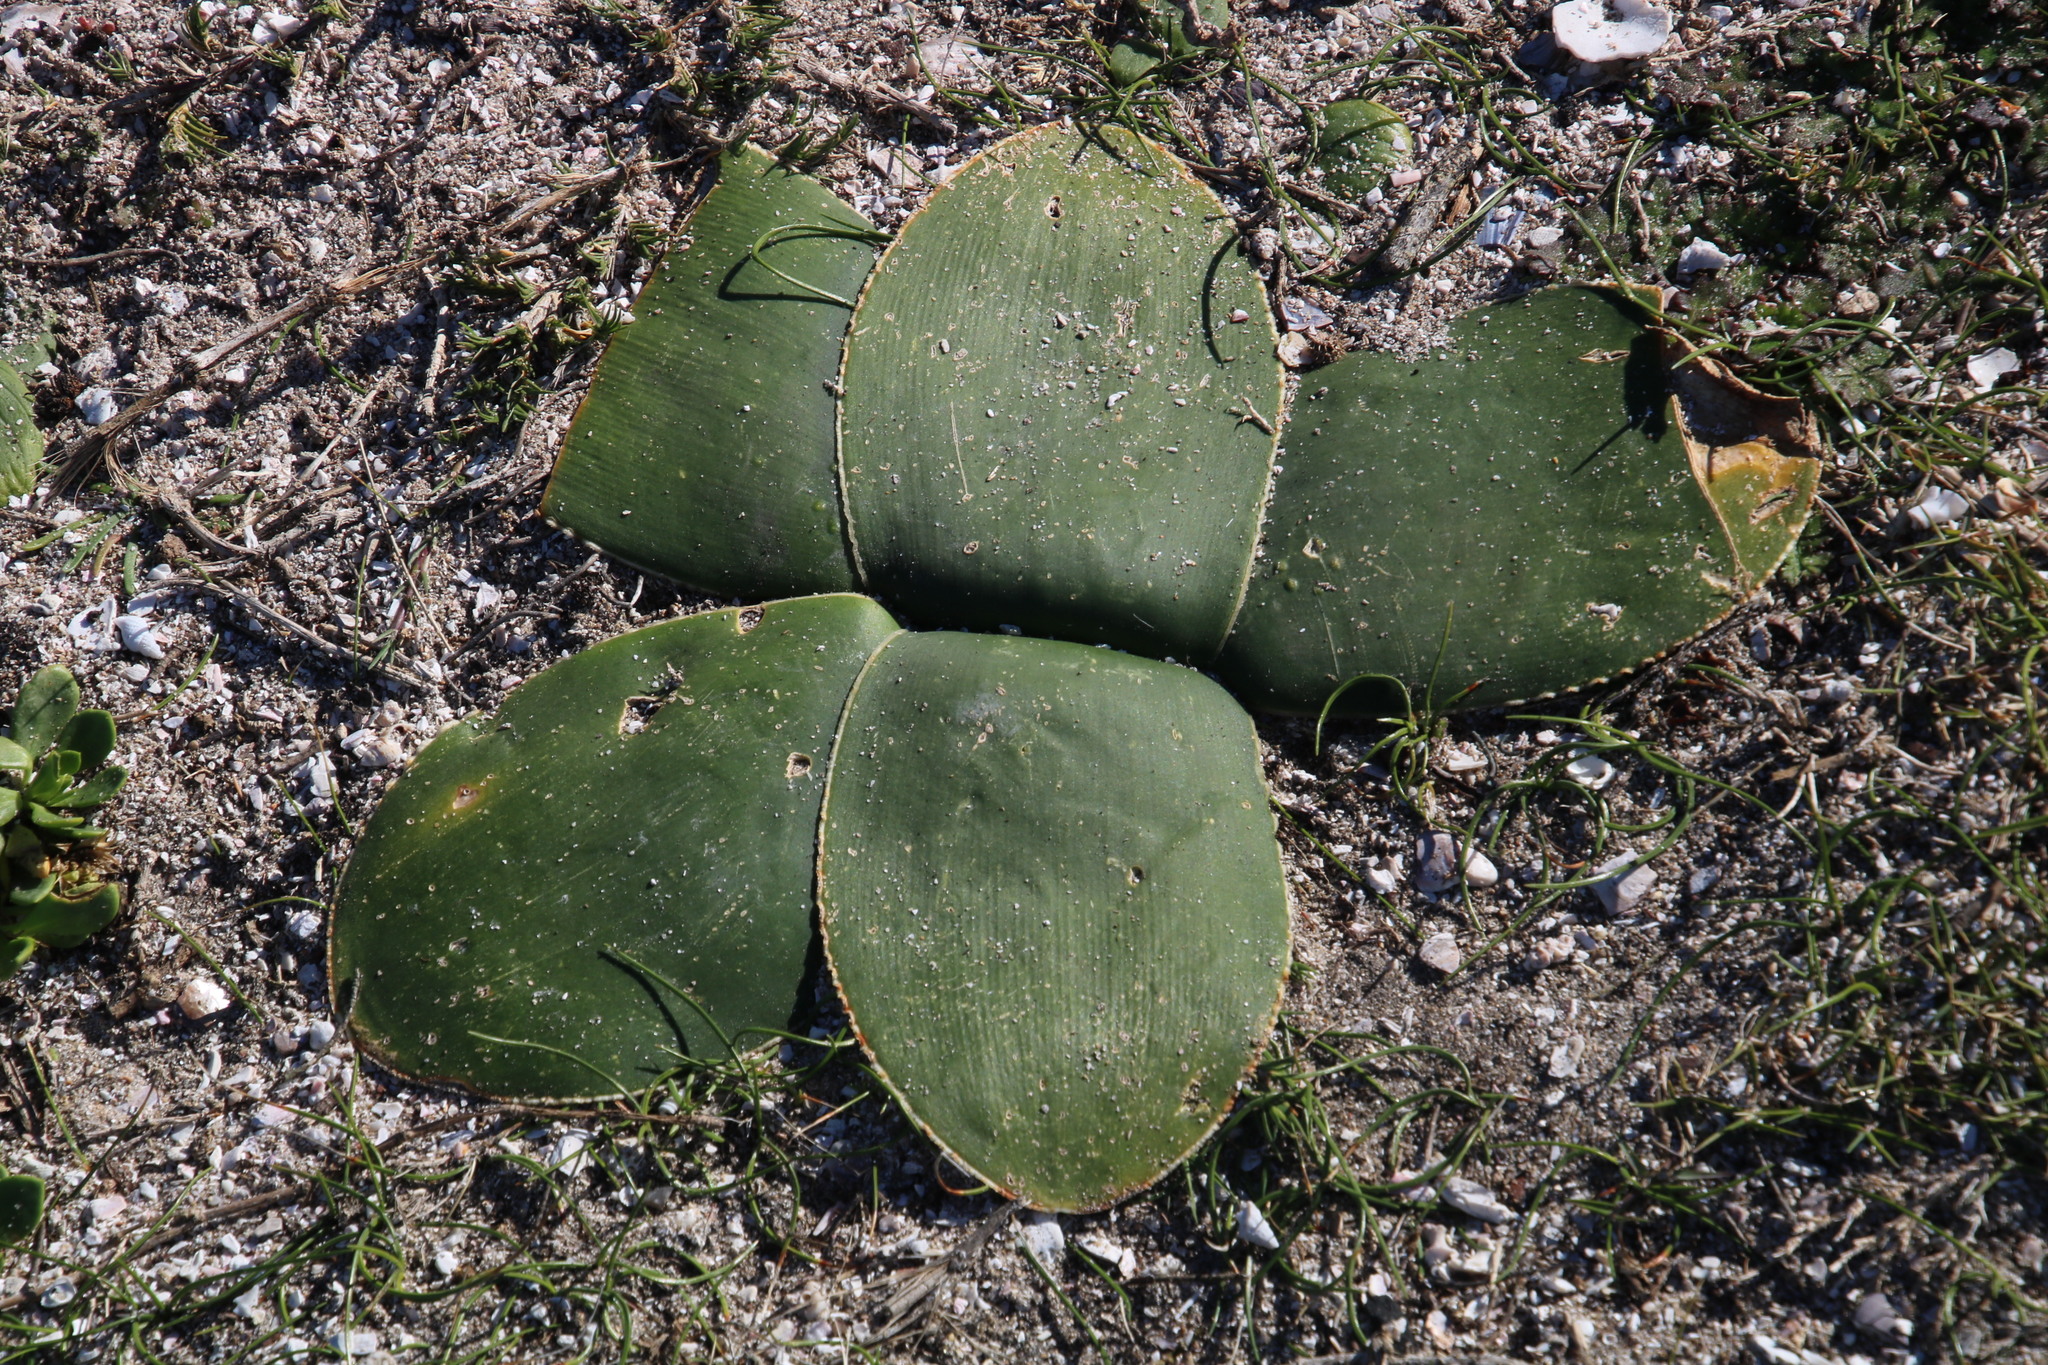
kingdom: Plantae
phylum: Tracheophyta
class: Liliopsida
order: Asparagales
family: Amaryllidaceae
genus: Brunsvigia
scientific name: Brunsvigia gregaria
